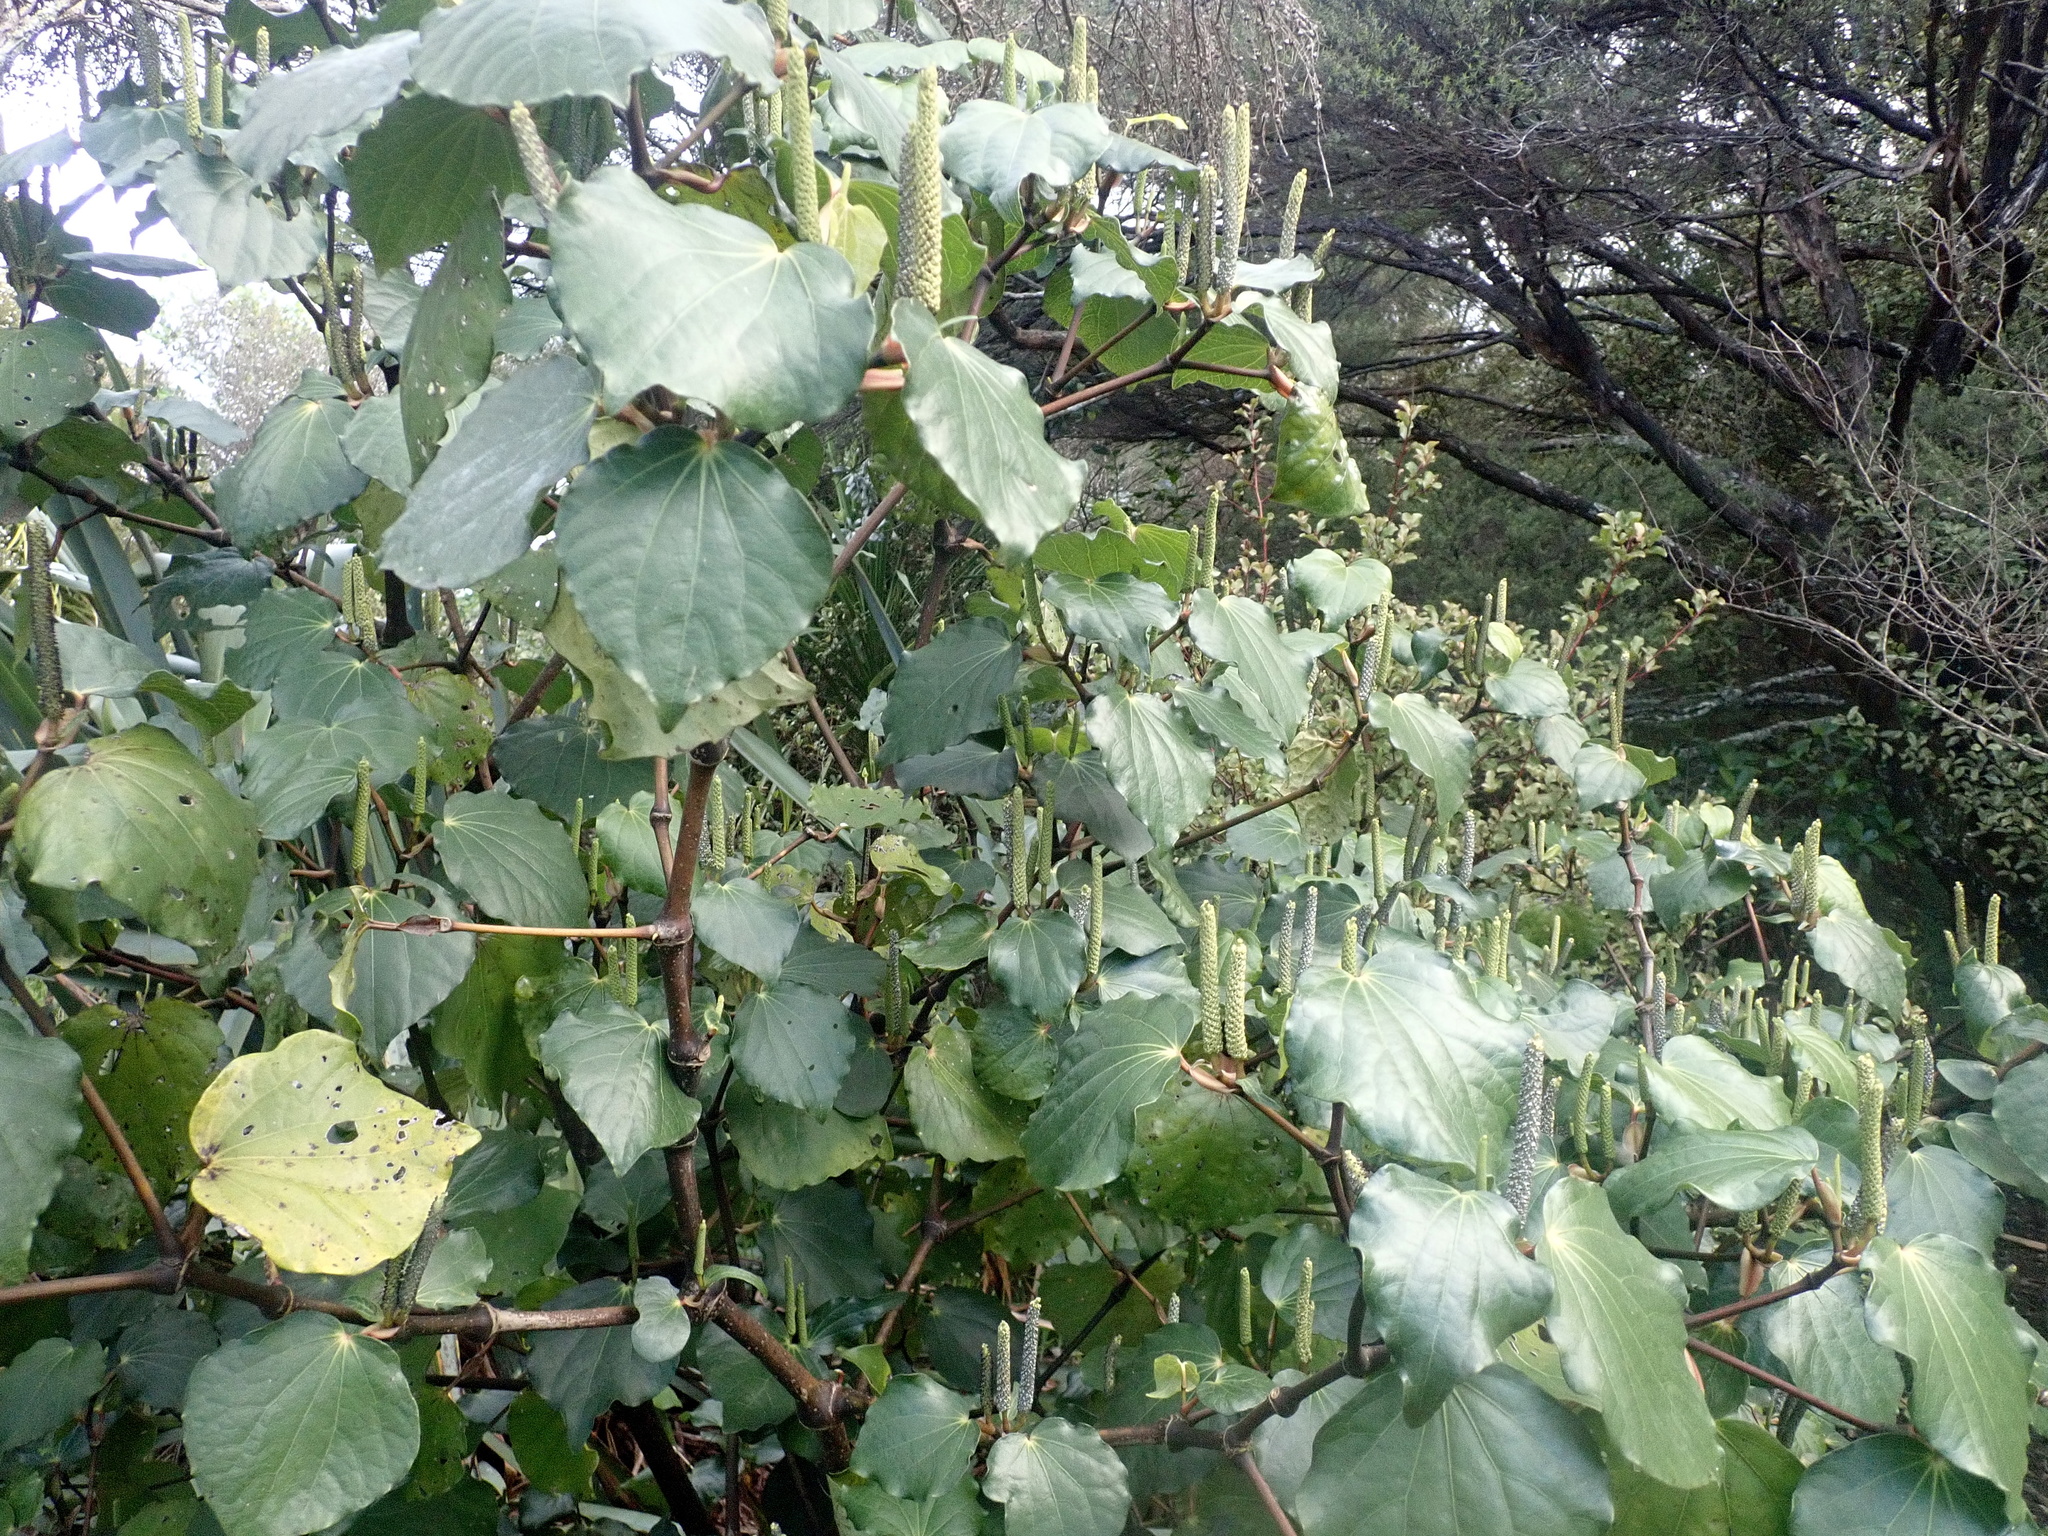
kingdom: Plantae
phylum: Tracheophyta
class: Magnoliopsida
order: Piperales
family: Piperaceae
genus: Macropiper
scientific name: Macropiper excelsum
